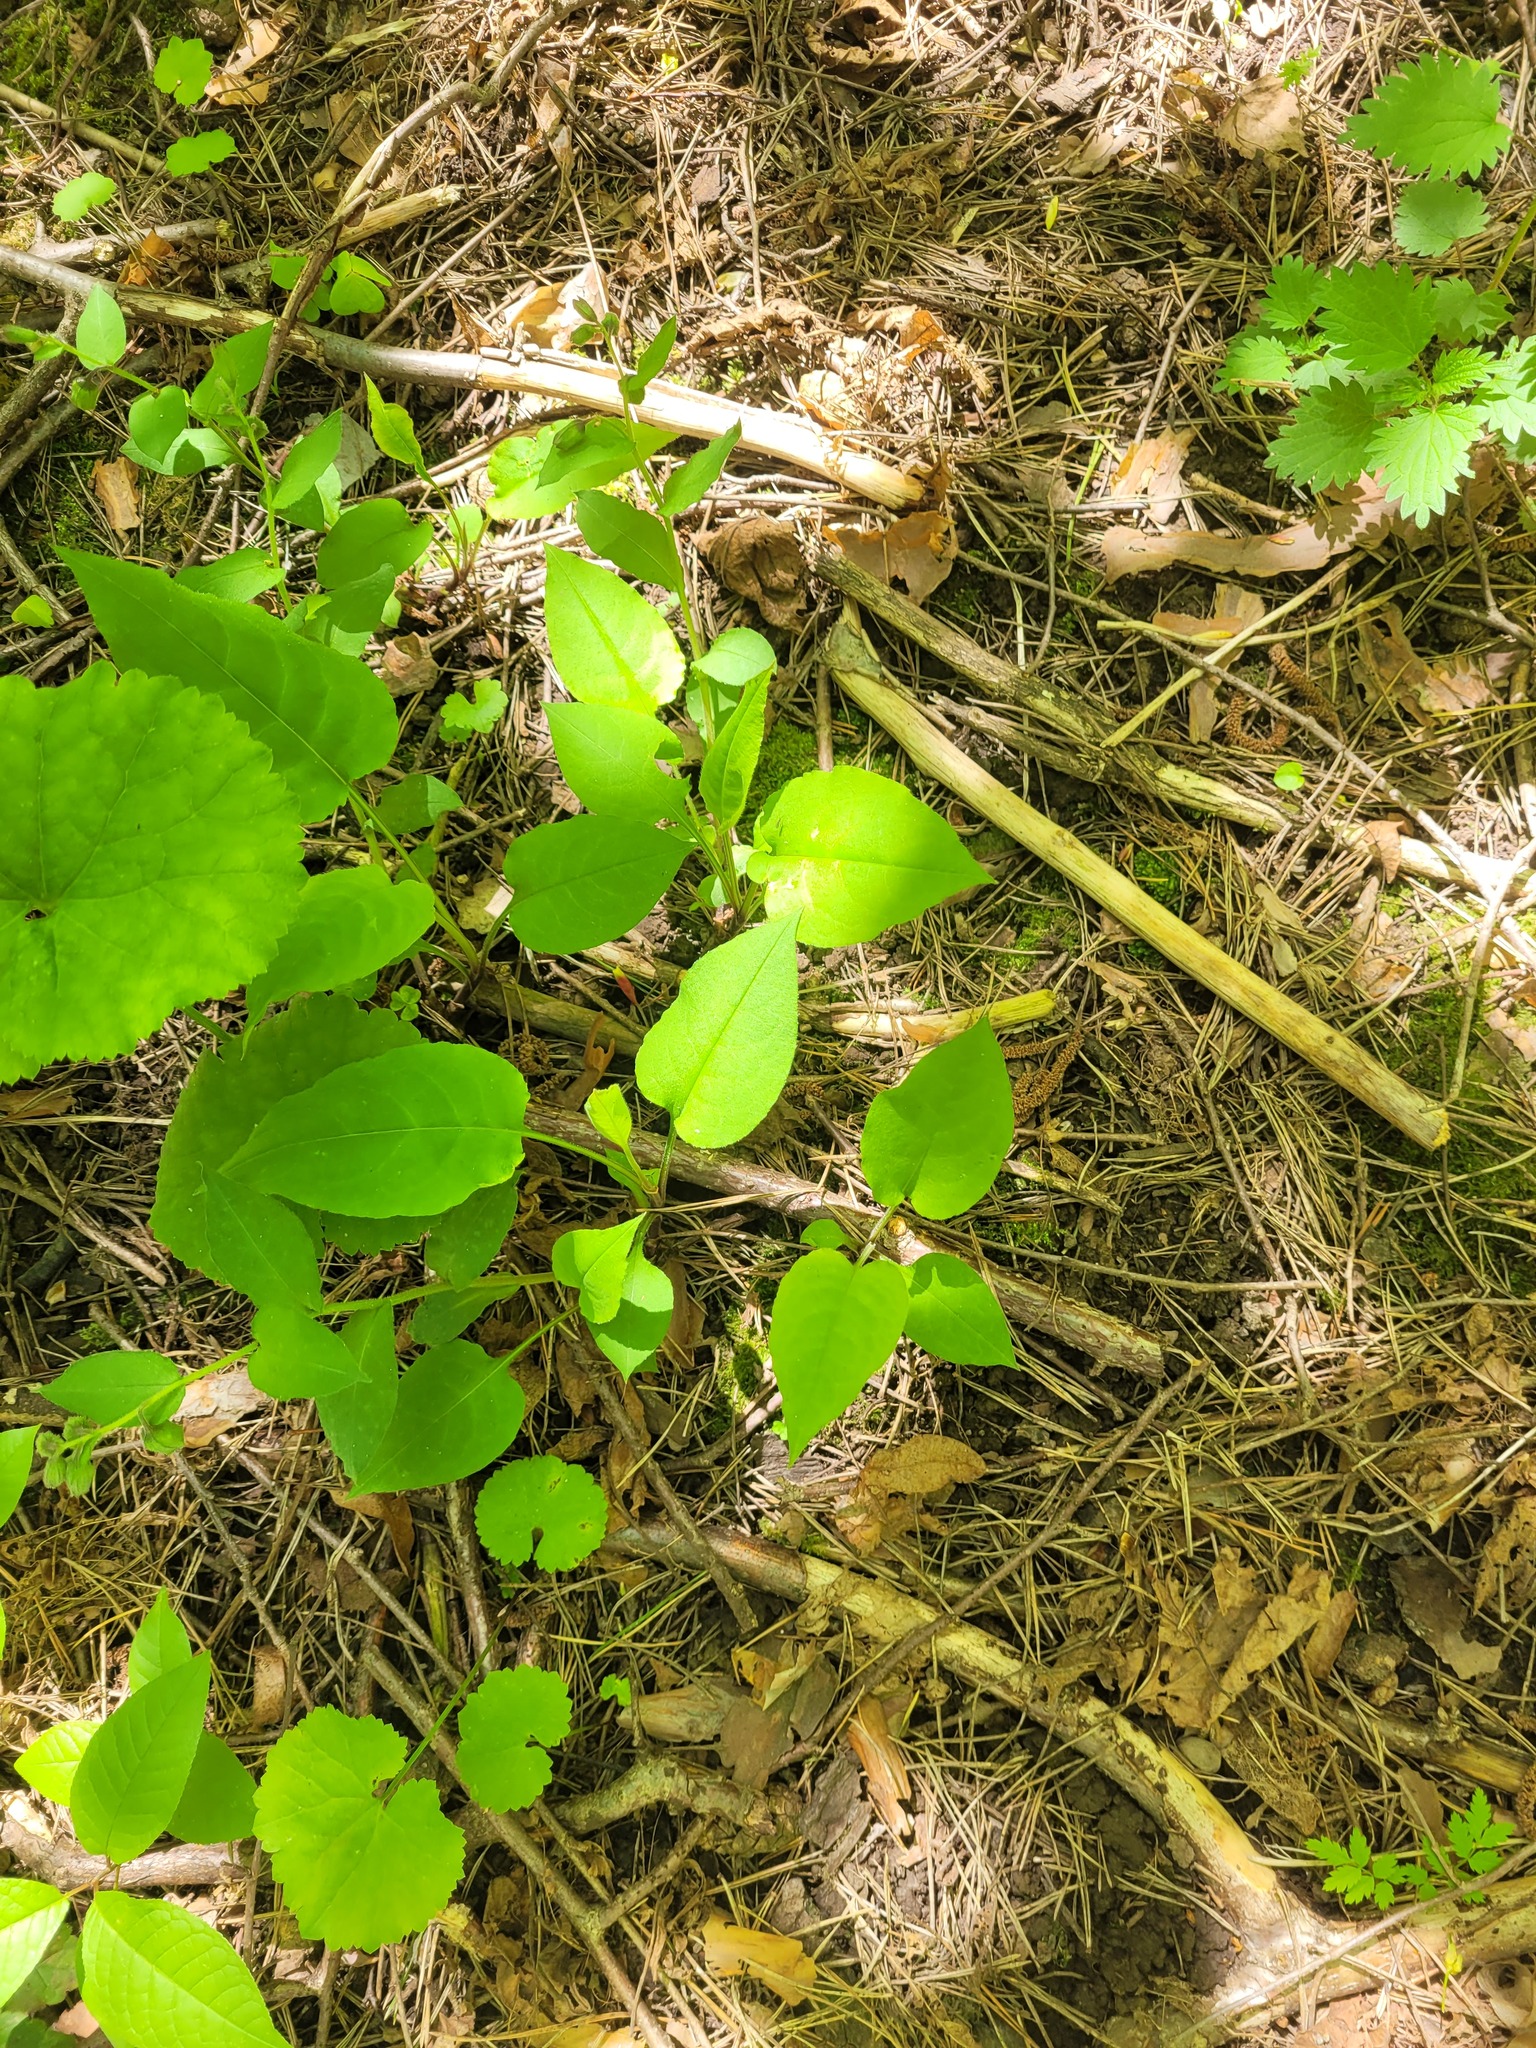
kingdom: Plantae
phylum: Tracheophyta
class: Magnoliopsida
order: Boraginales
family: Boraginaceae
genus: Pulmonaria
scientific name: Pulmonaria obscura
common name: Suffolk lungwort
